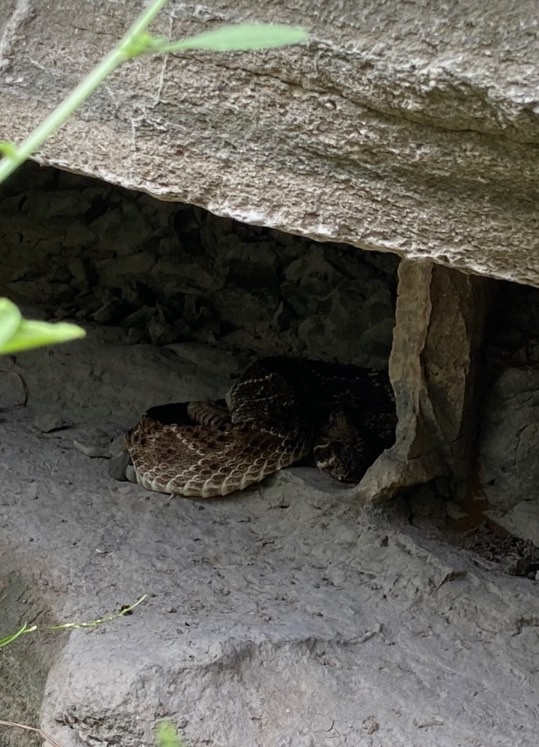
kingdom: Animalia
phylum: Chordata
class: Squamata
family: Viperidae
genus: Crotalus
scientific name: Crotalus atrox
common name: Western diamond-backed rattlesnake
